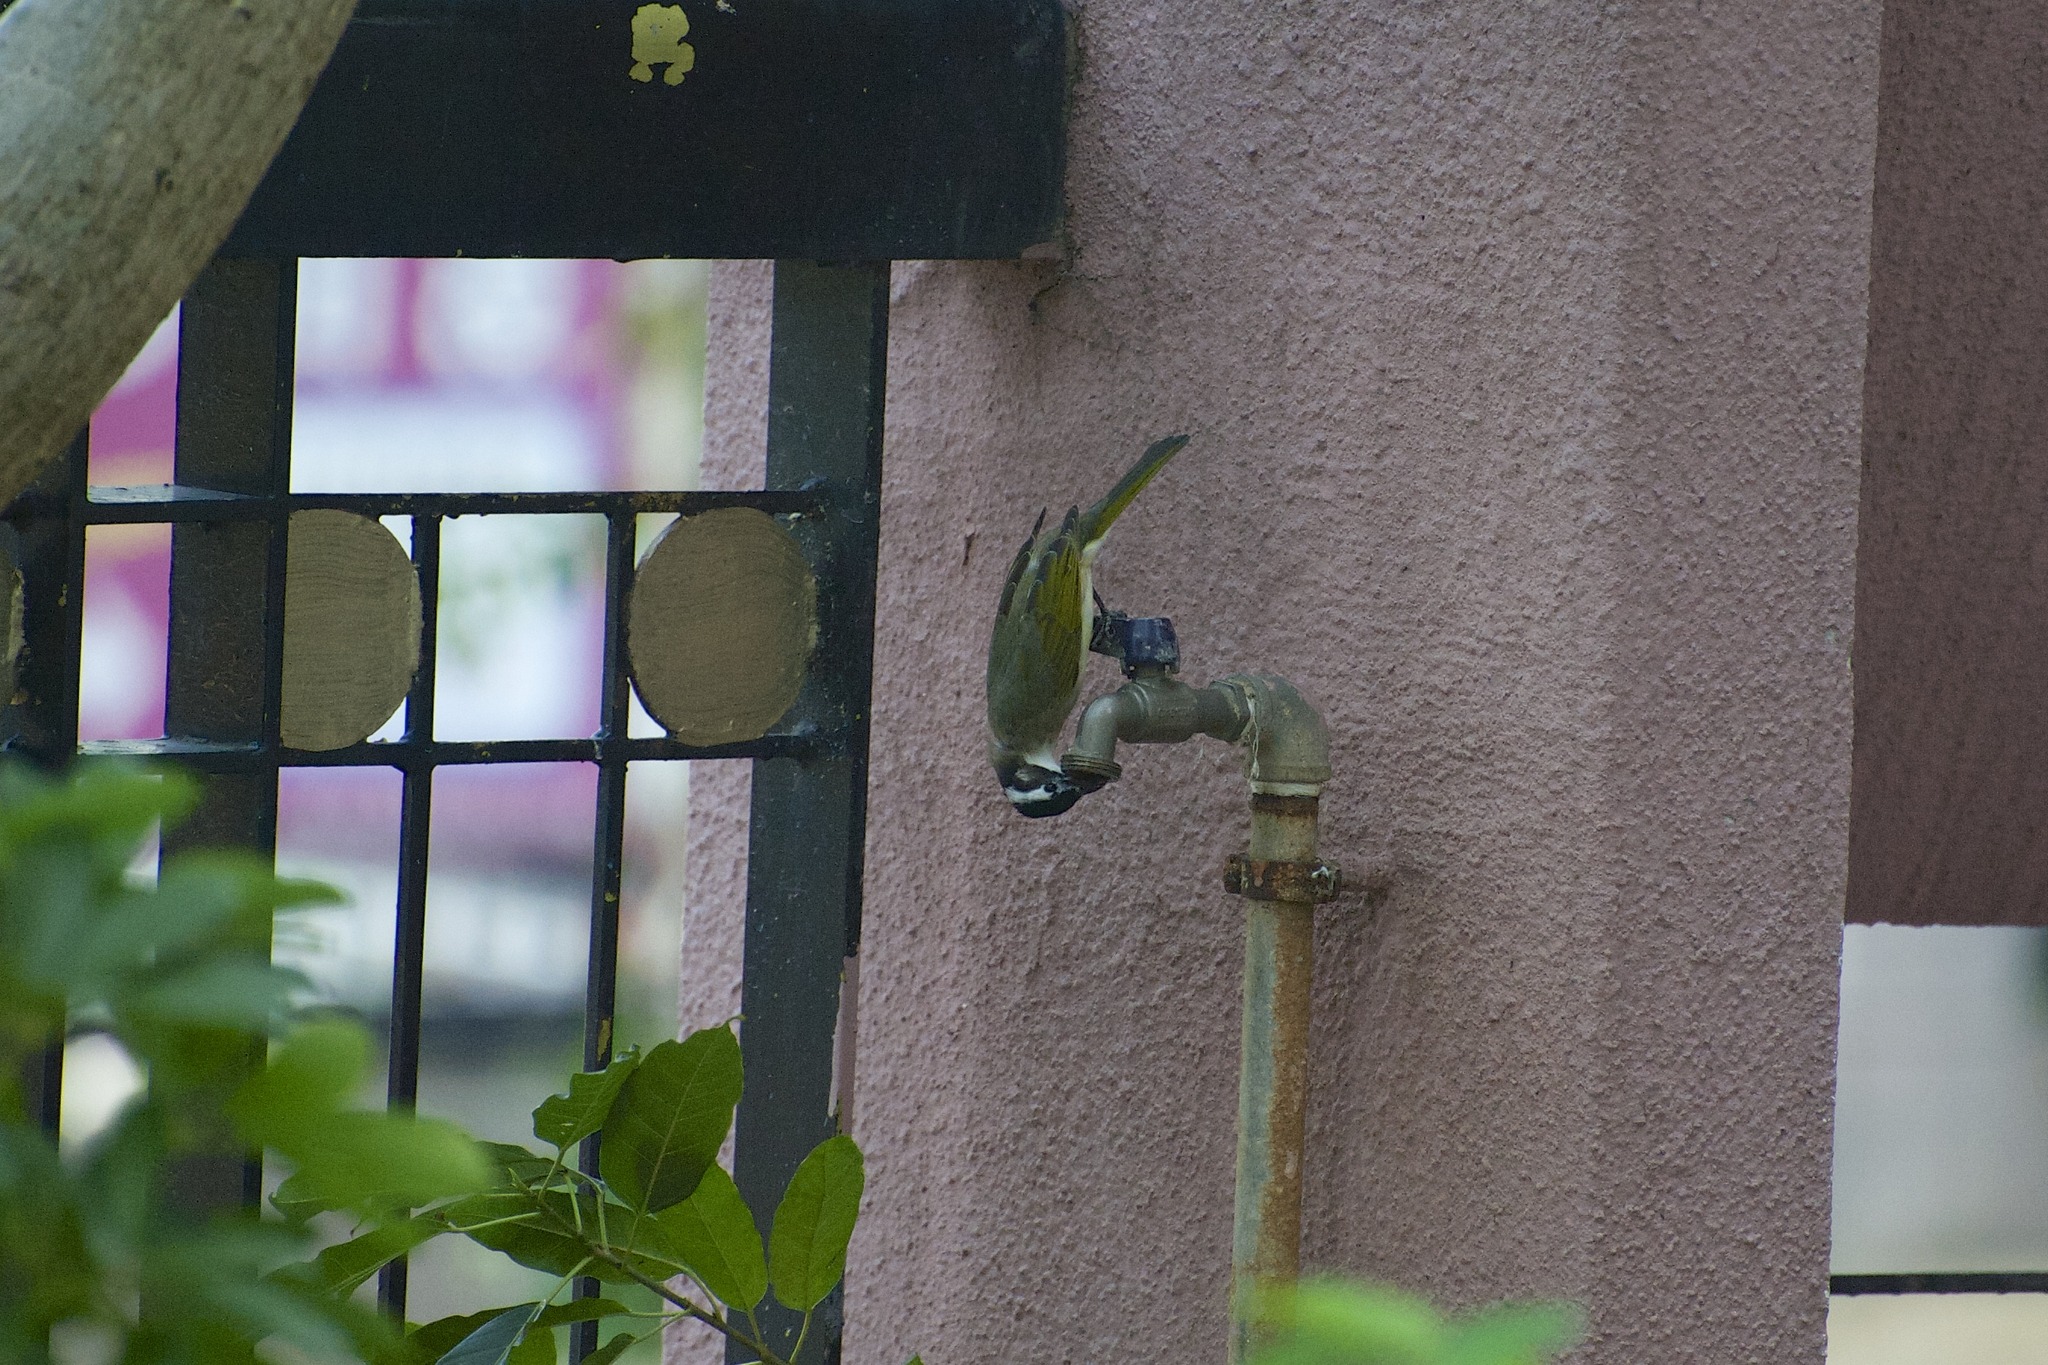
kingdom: Animalia
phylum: Chordata
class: Aves
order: Passeriformes
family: Pycnonotidae
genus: Pycnonotus
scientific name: Pycnonotus sinensis
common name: Light-vented bulbul
